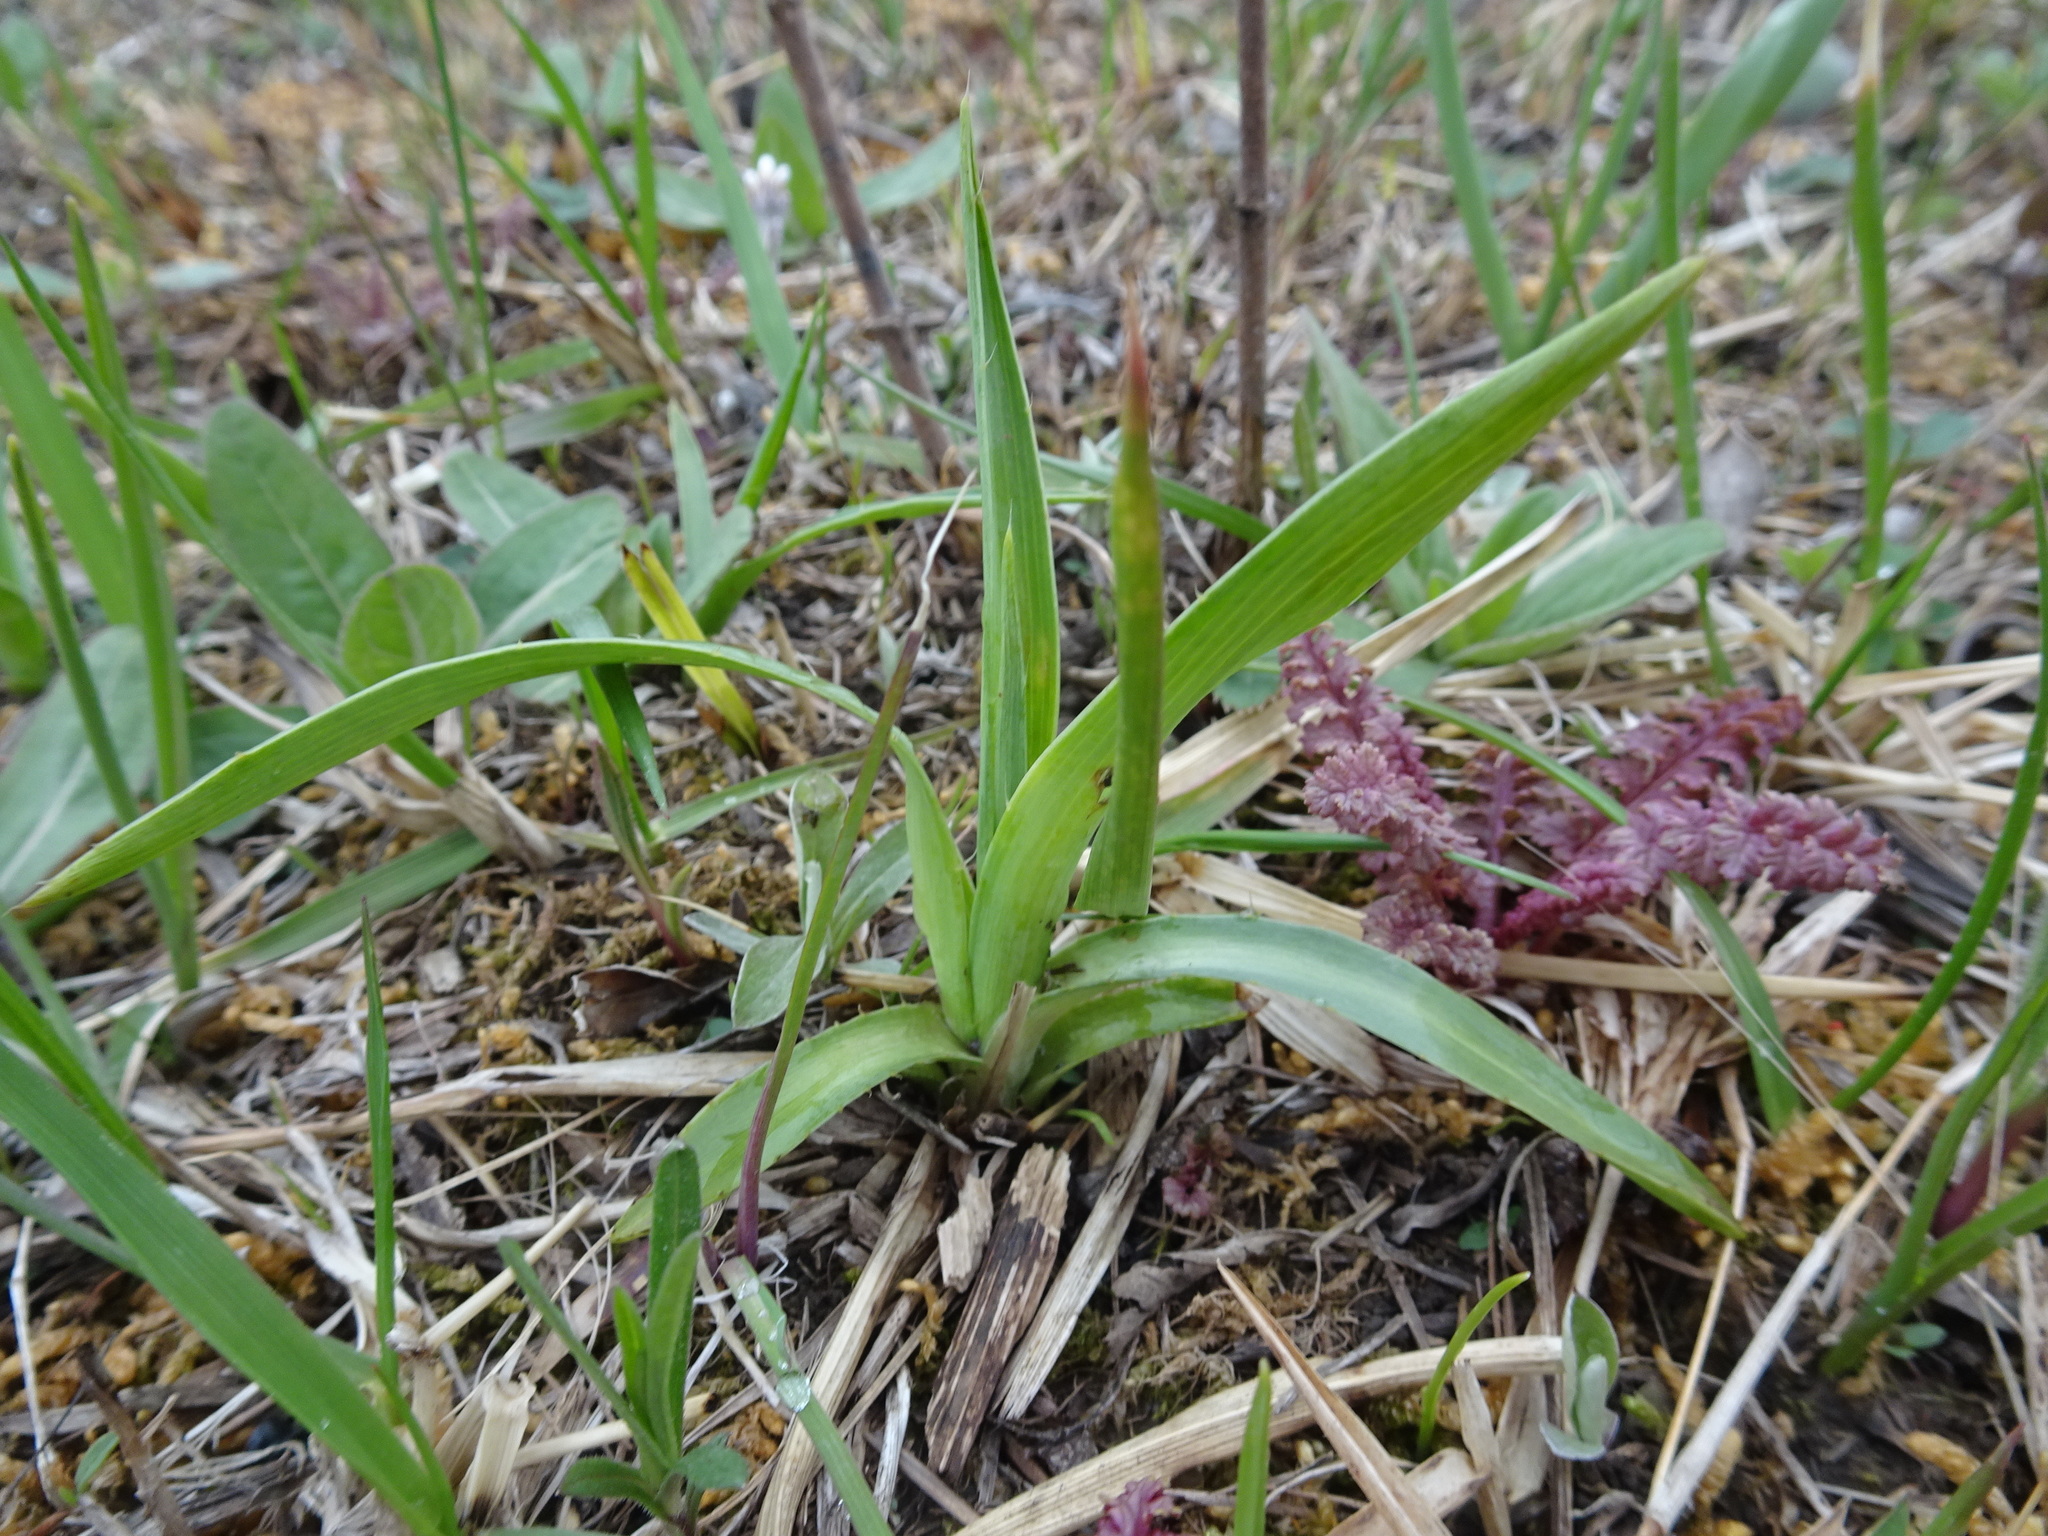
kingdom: Plantae
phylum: Tracheophyta
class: Magnoliopsida
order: Apiales
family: Apiaceae
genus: Eryngium
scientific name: Eryngium yuccifolium
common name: Button eryngo
